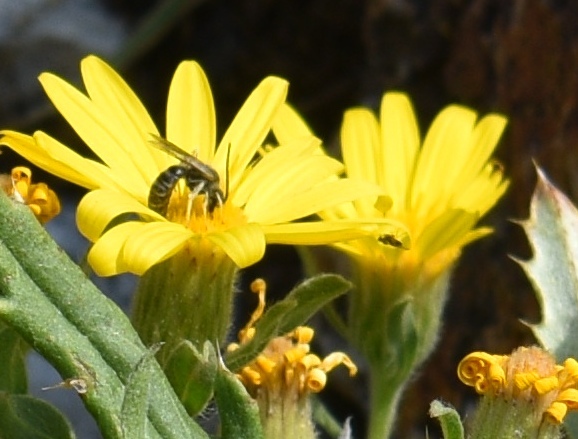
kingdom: Animalia
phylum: Arthropoda
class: Insecta
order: Hymenoptera
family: Halictidae
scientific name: Halictidae
